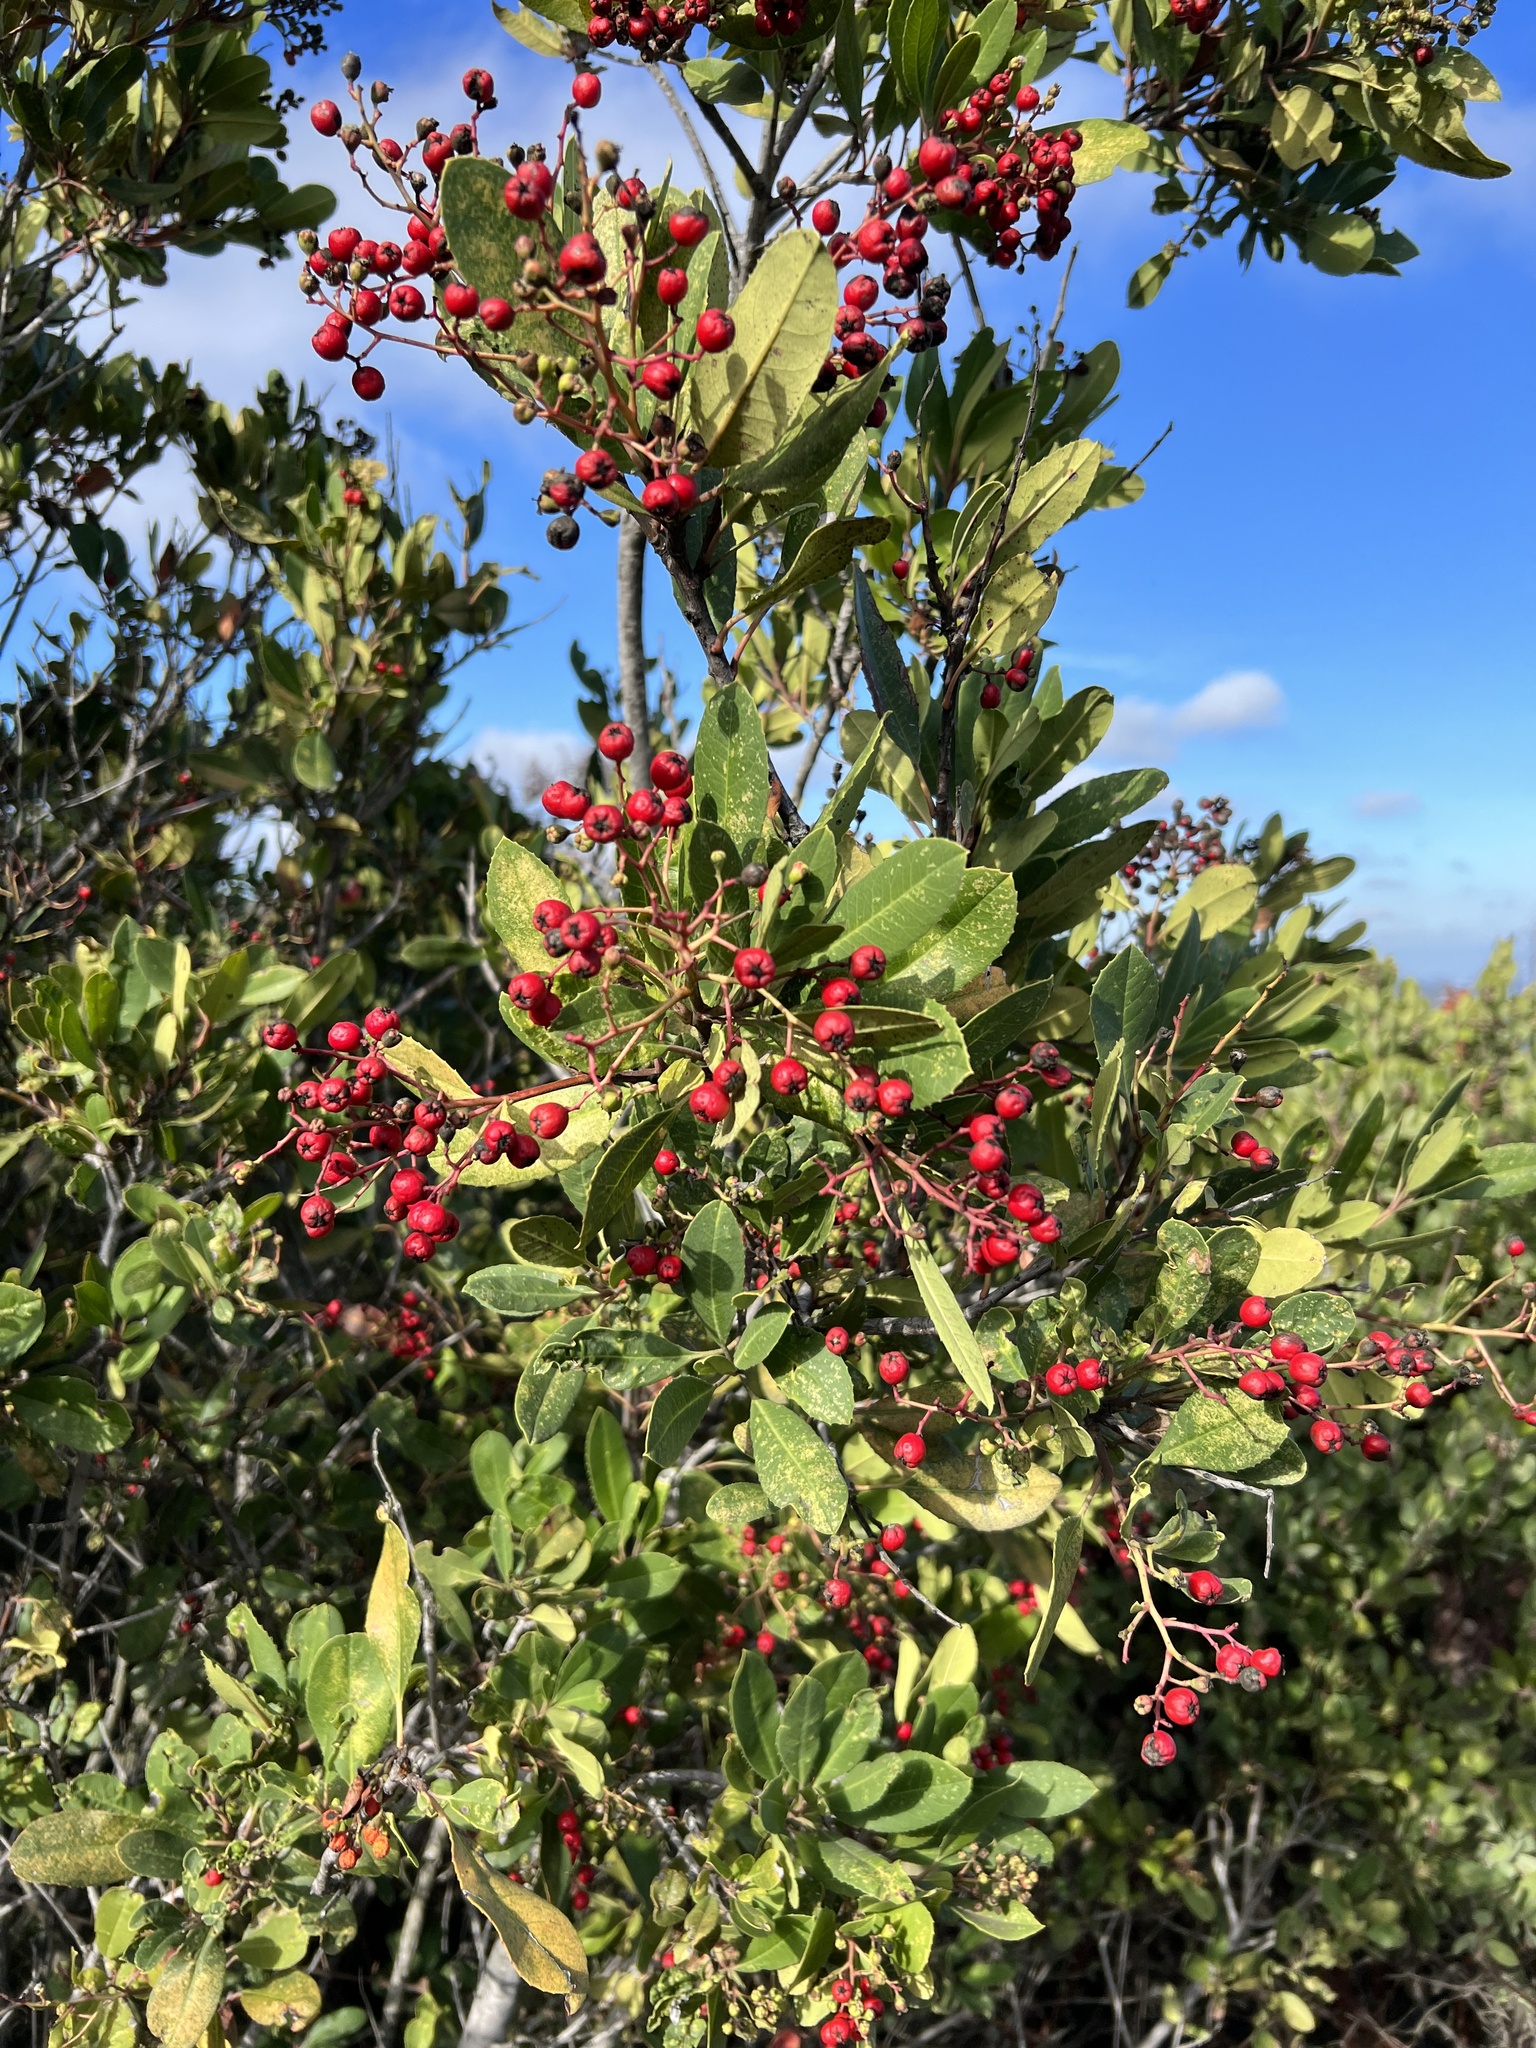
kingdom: Plantae
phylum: Tracheophyta
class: Magnoliopsida
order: Rosales
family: Rosaceae
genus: Heteromeles
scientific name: Heteromeles arbutifolia
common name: California-holly
